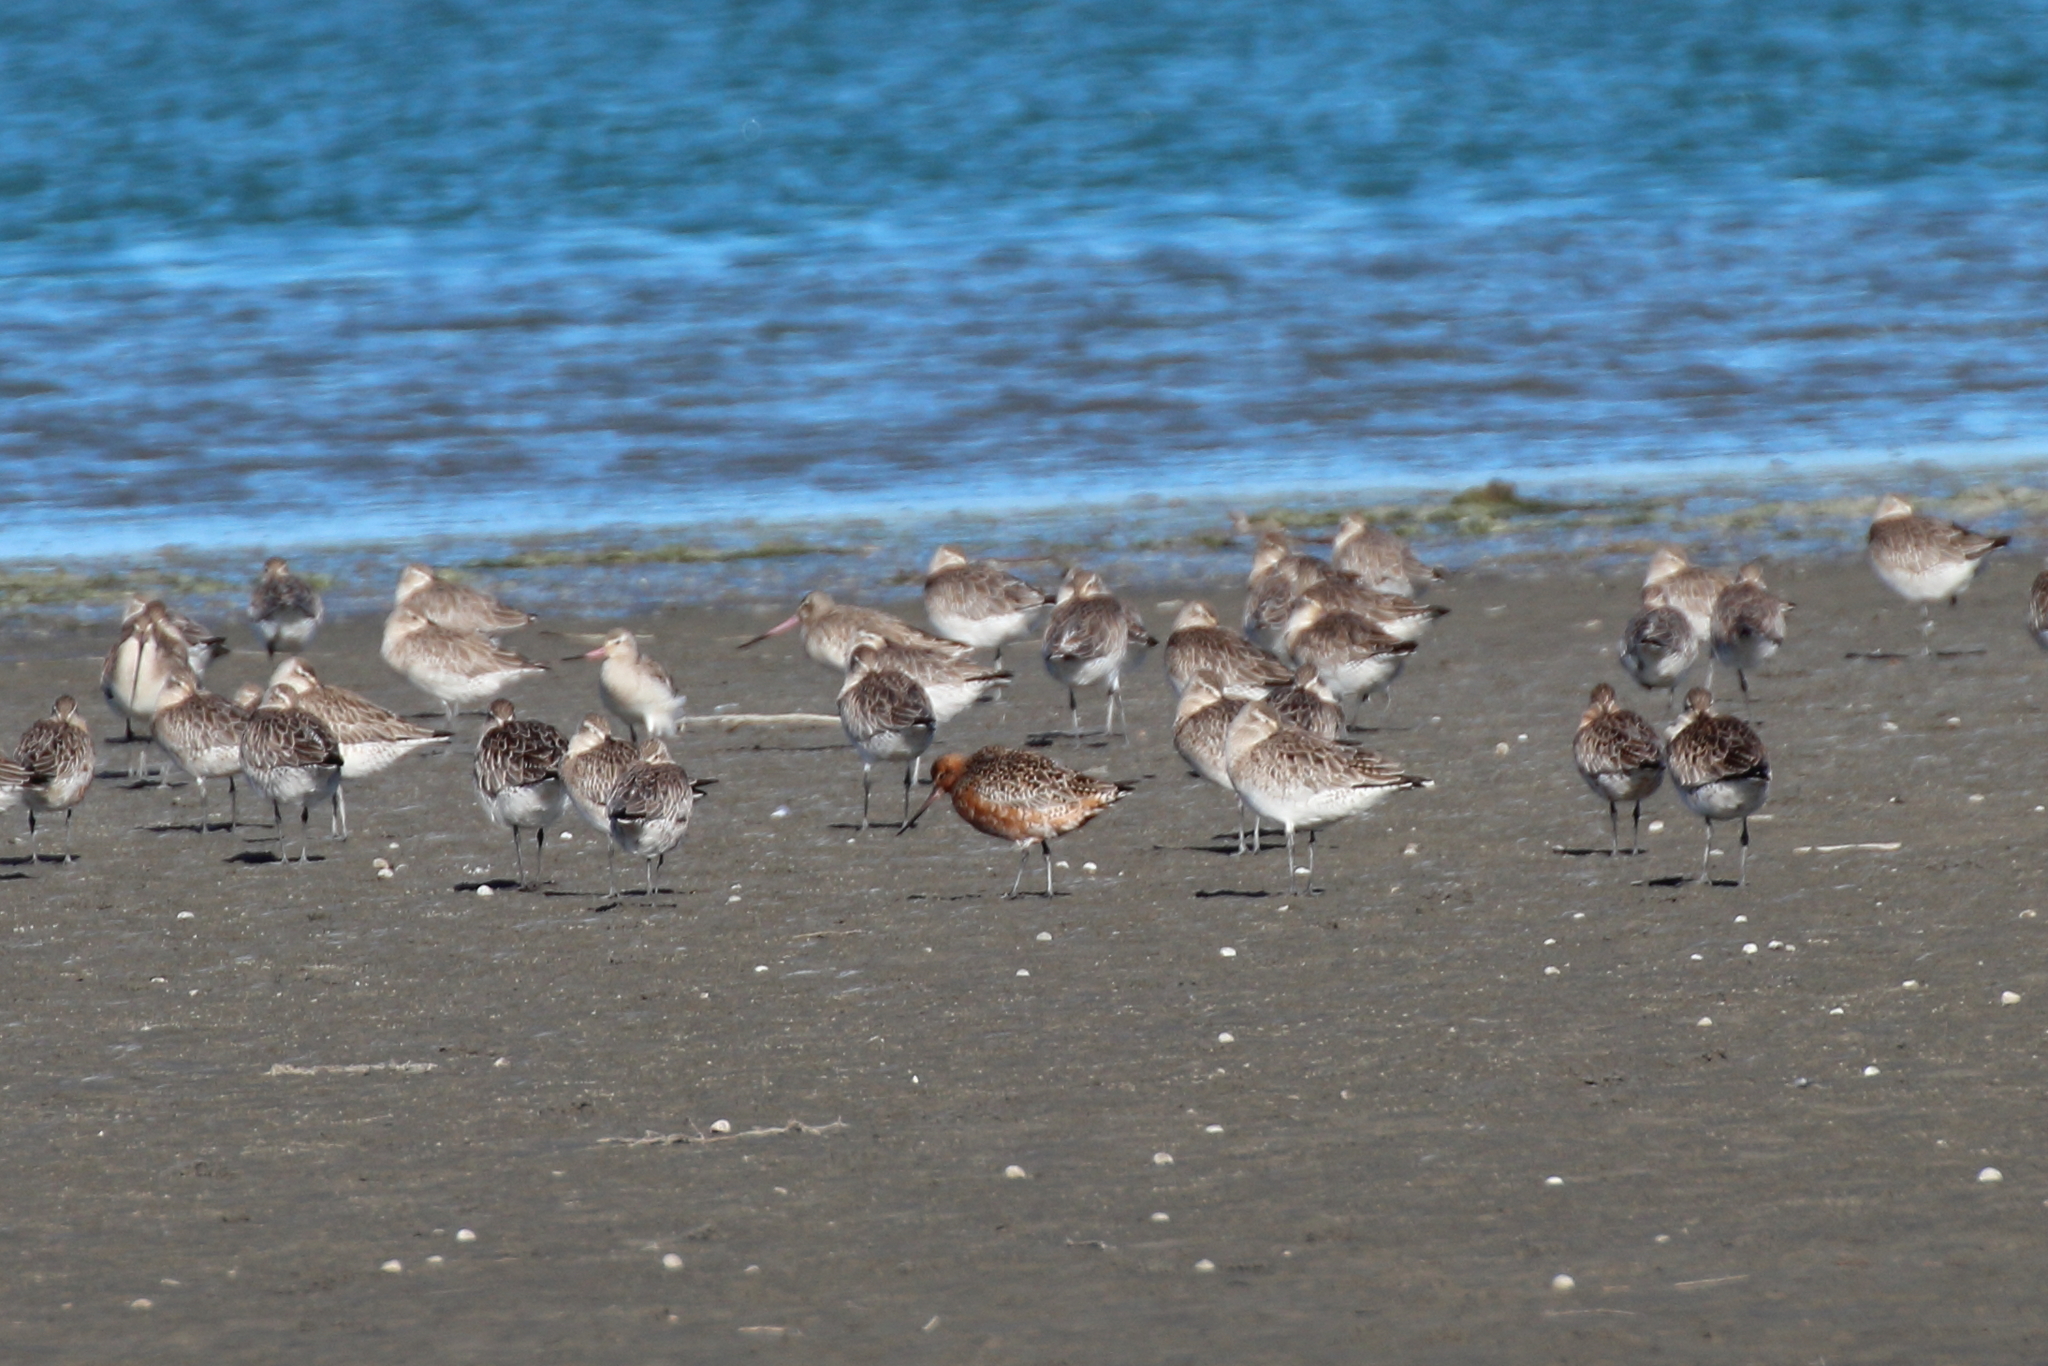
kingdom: Animalia
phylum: Chordata
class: Aves
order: Charadriiformes
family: Scolopacidae
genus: Limosa
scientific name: Limosa lapponica
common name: Bar-tailed godwit
